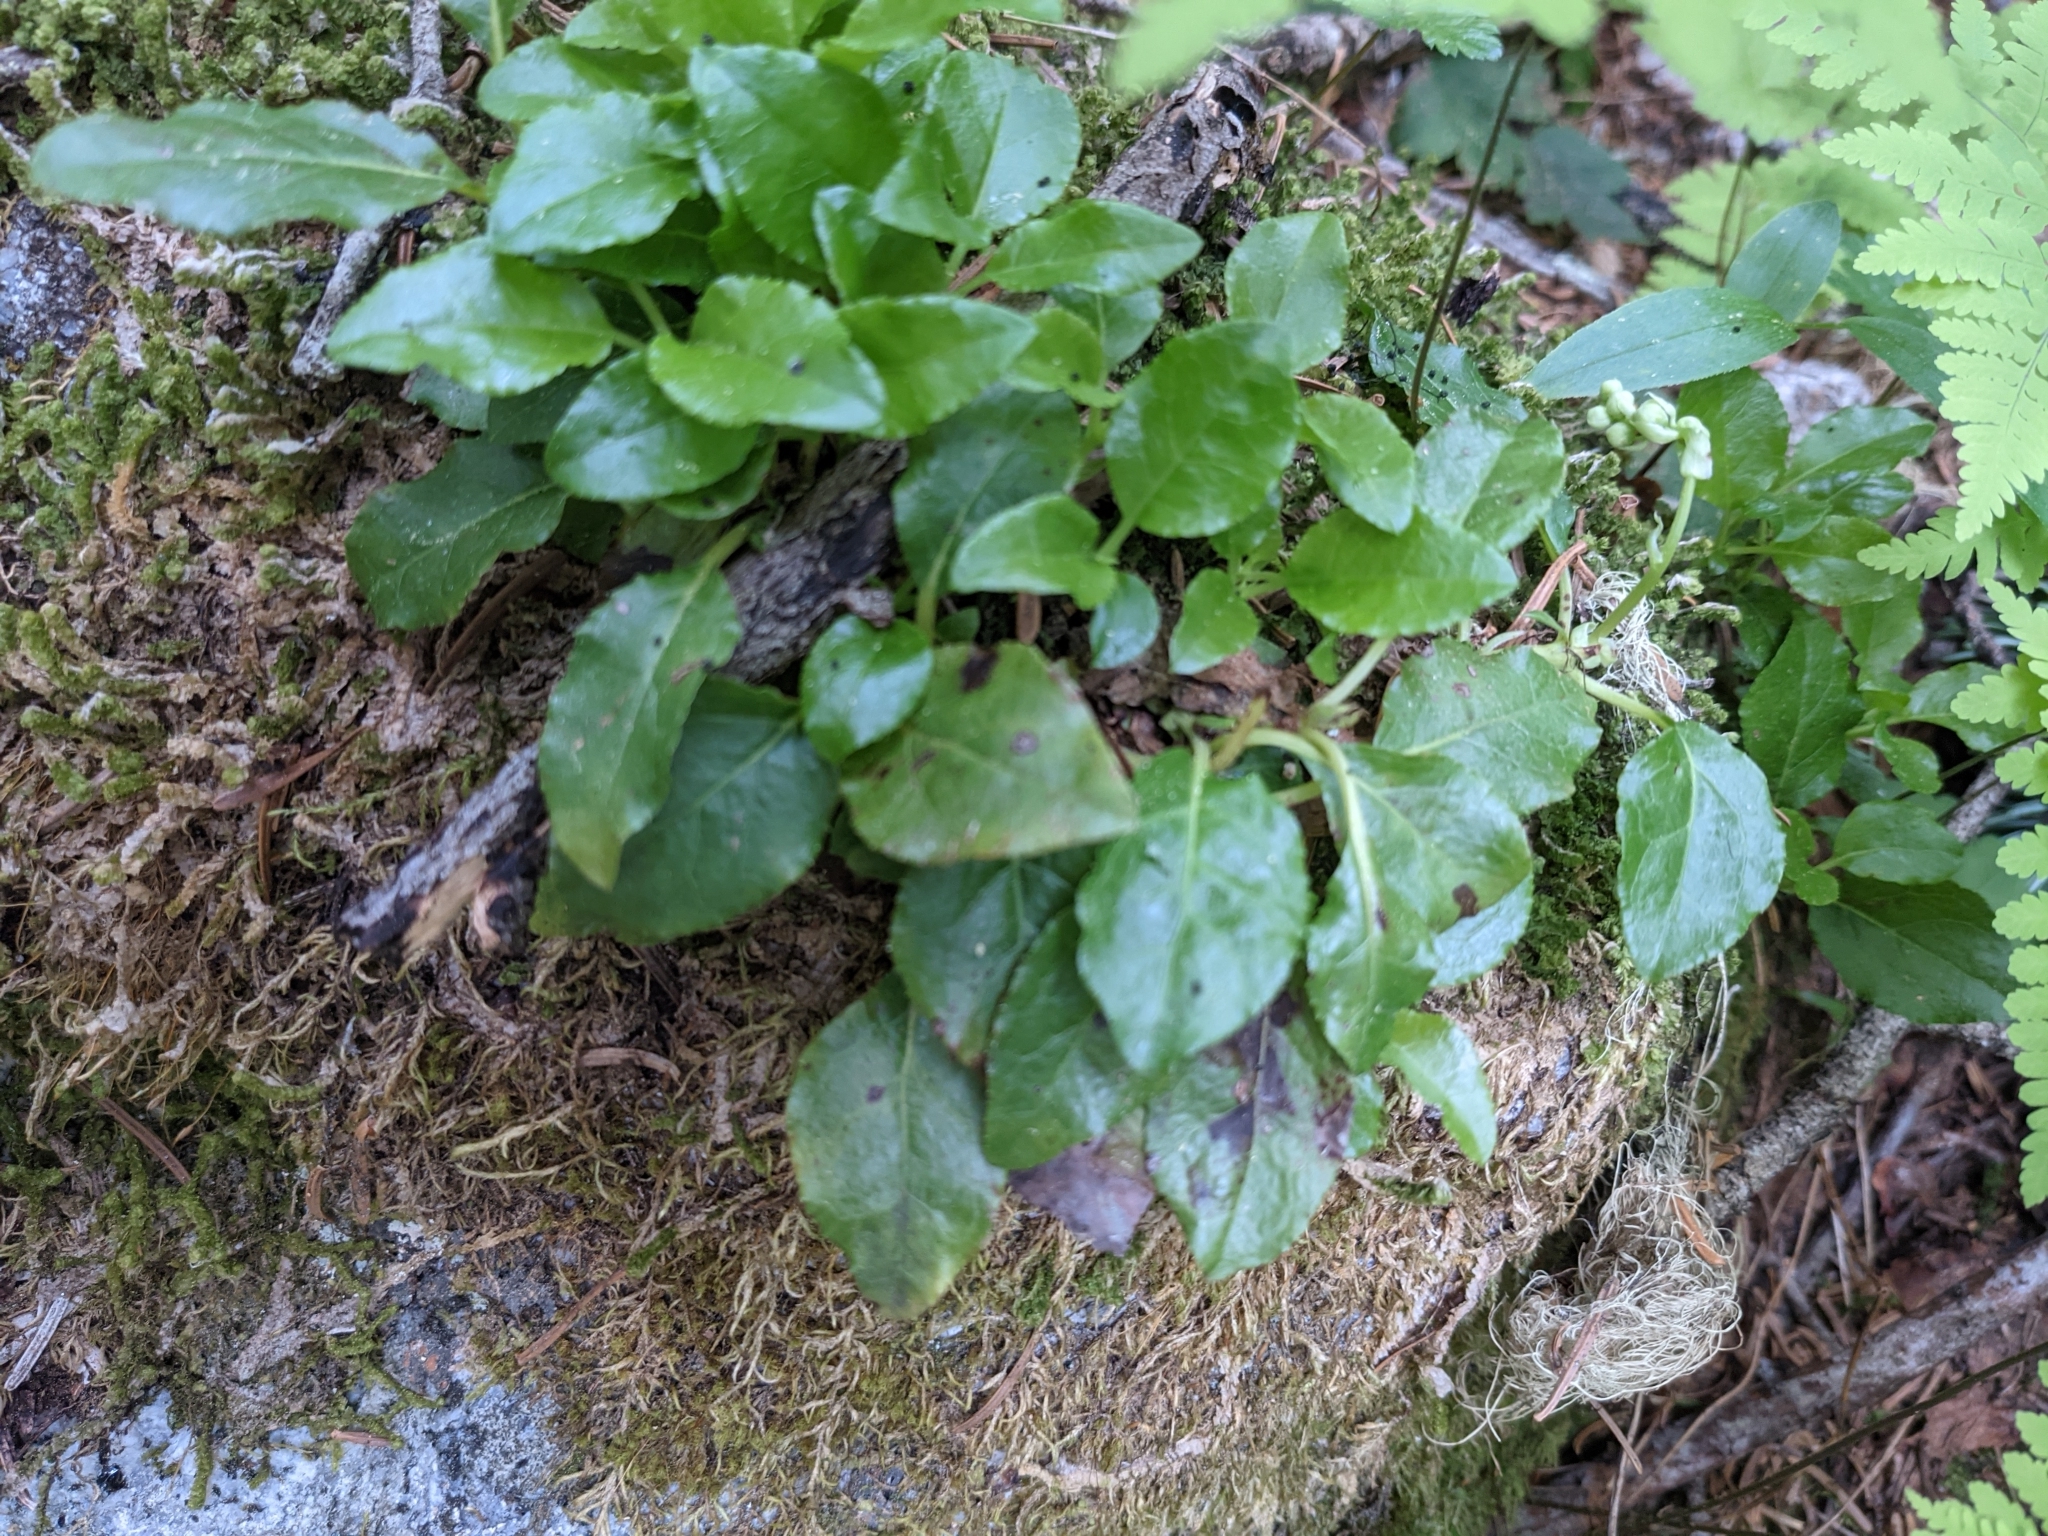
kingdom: Plantae
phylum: Tracheophyta
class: Magnoliopsida
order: Ericales
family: Ericaceae
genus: Orthilia
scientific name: Orthilia secunda
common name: One-sided orthilia
